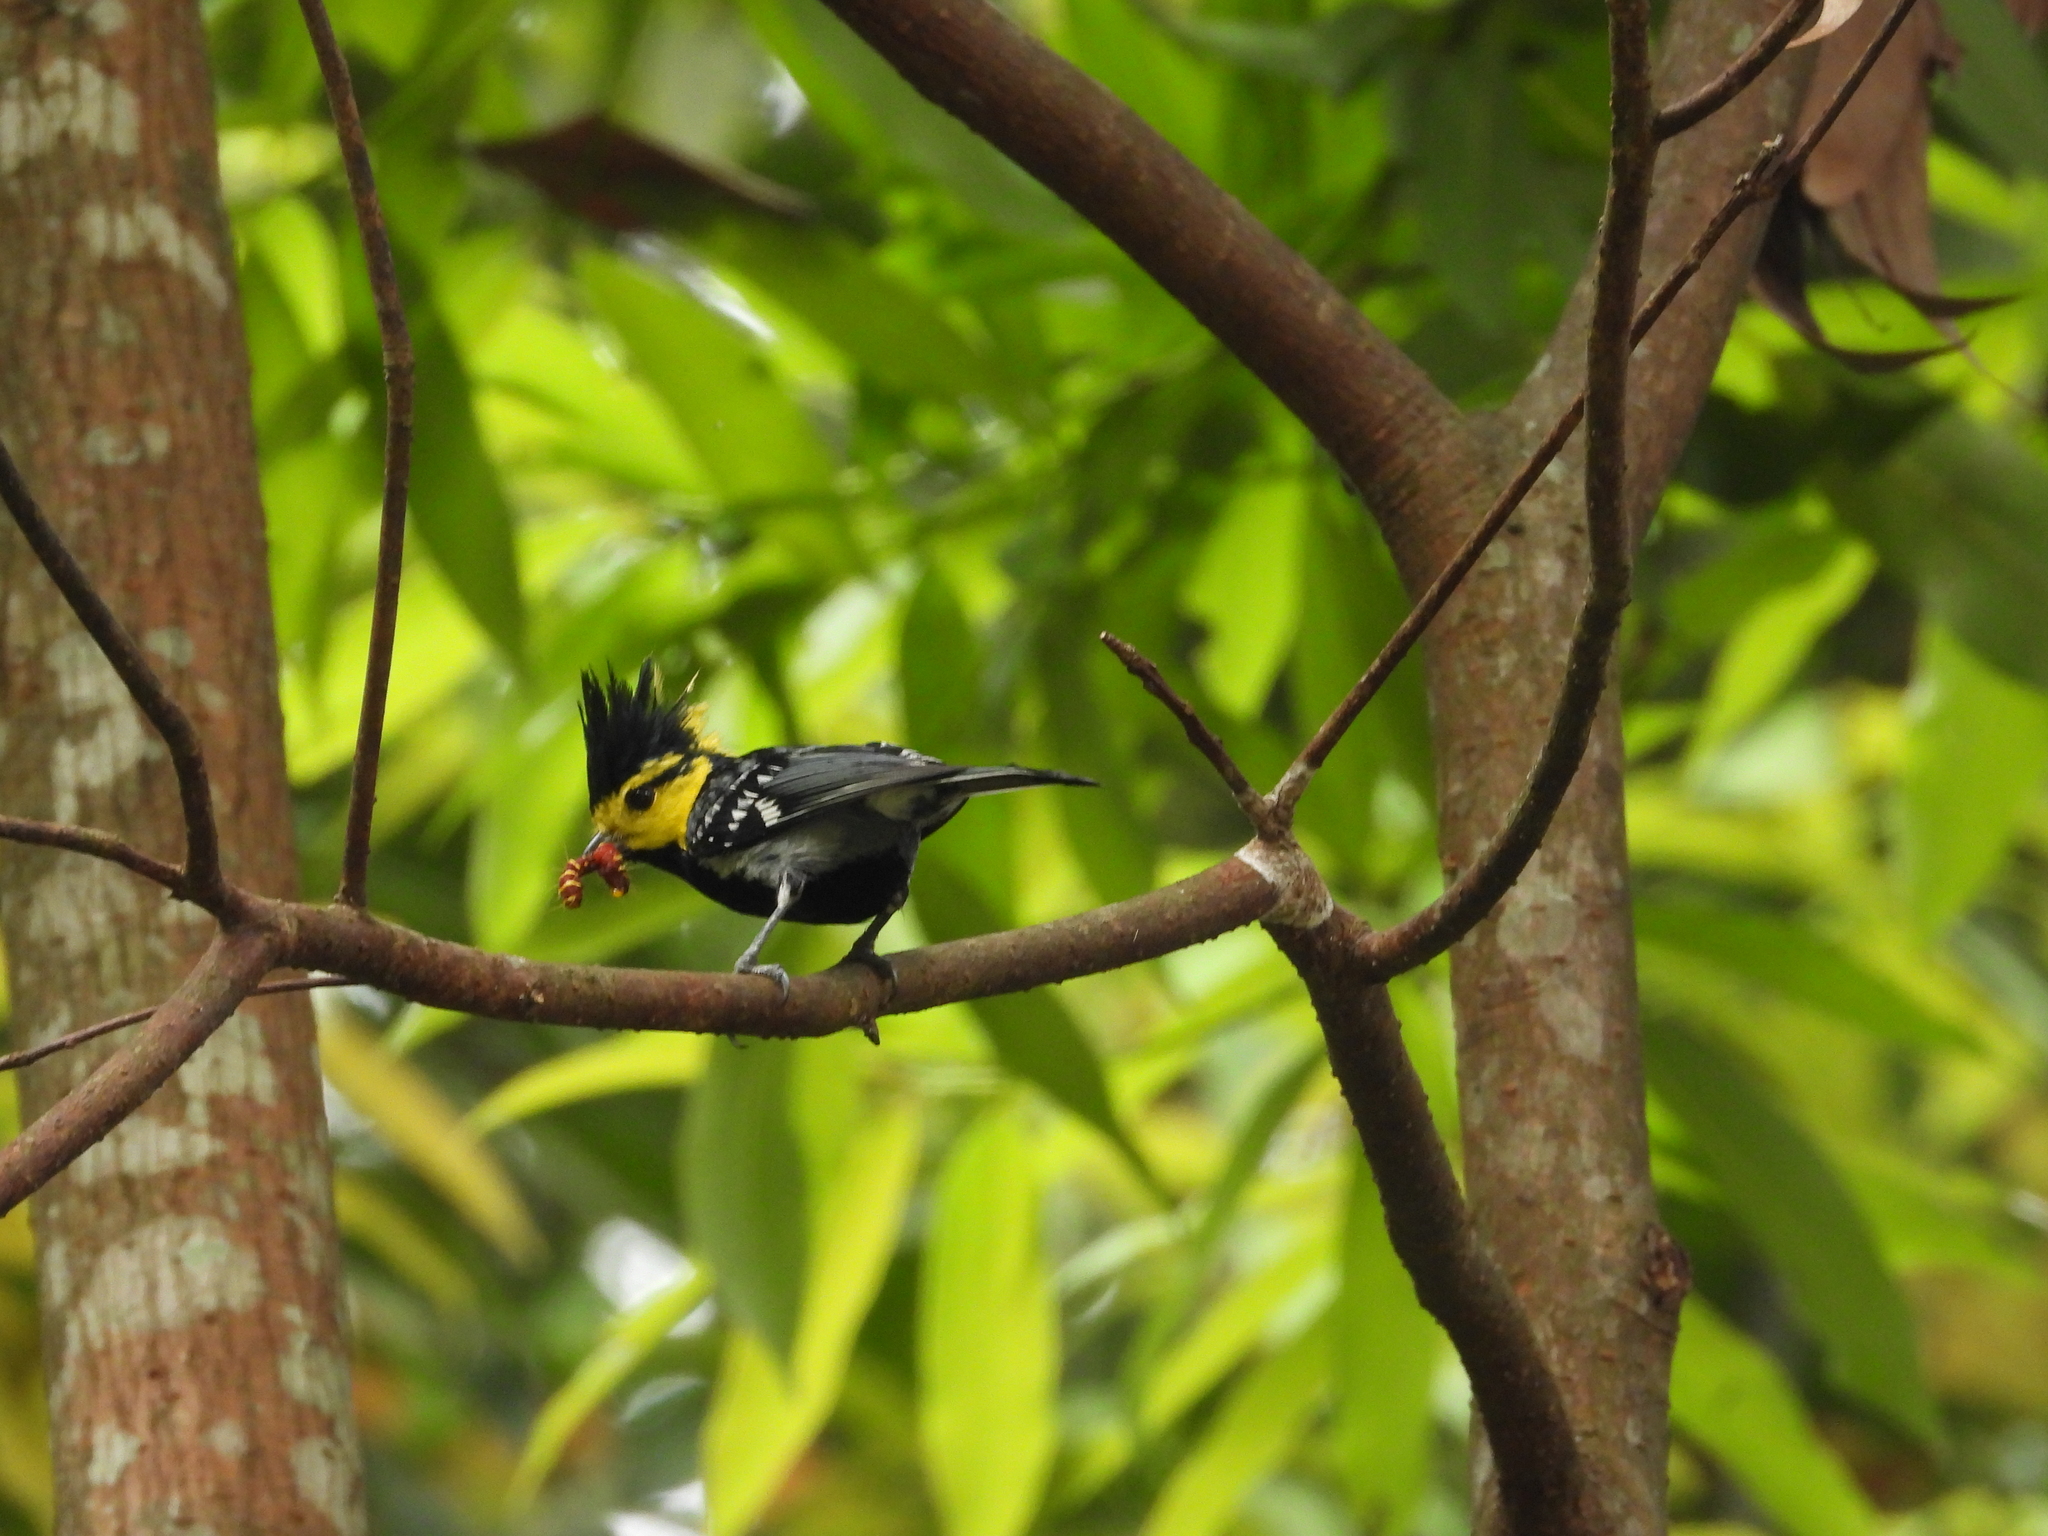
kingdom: Animalia
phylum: Chordata
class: Aves
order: Passeriformes
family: Paridae
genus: Parus
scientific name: Parus spilonotus
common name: Yellow-cheeked tit
